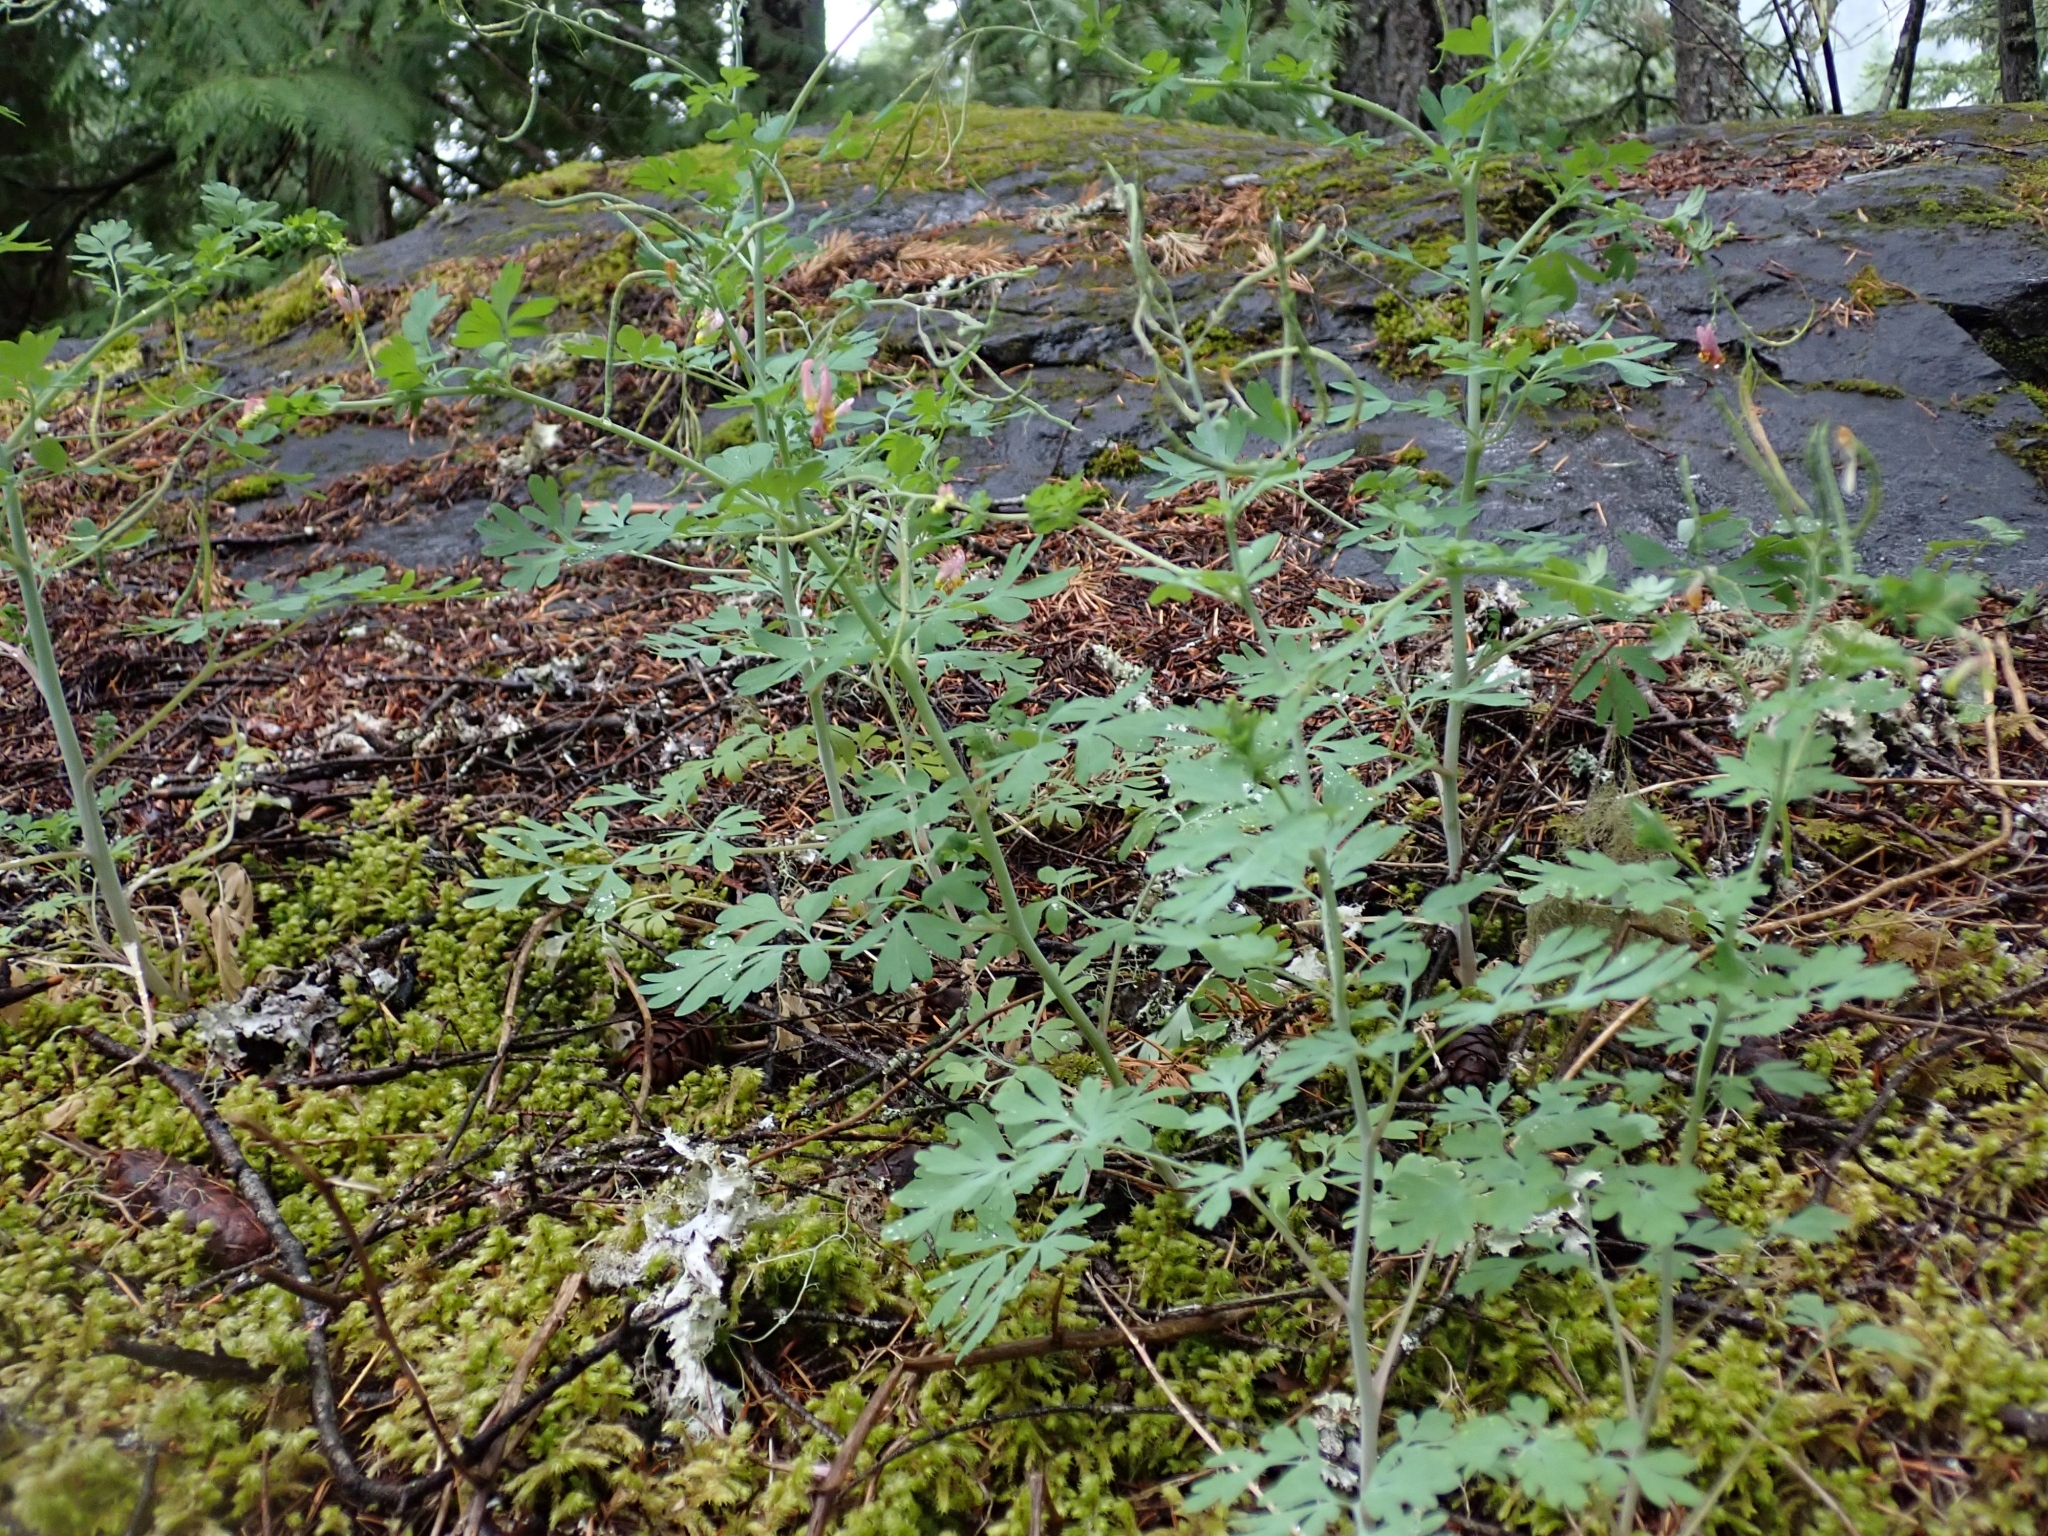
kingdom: Plantae
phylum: Tracheophyta
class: Magnoliopsida
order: Ranunculales
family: Papaveraceae
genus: Capnoides
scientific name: Capnoides sempervirens
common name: Rock harlequin
